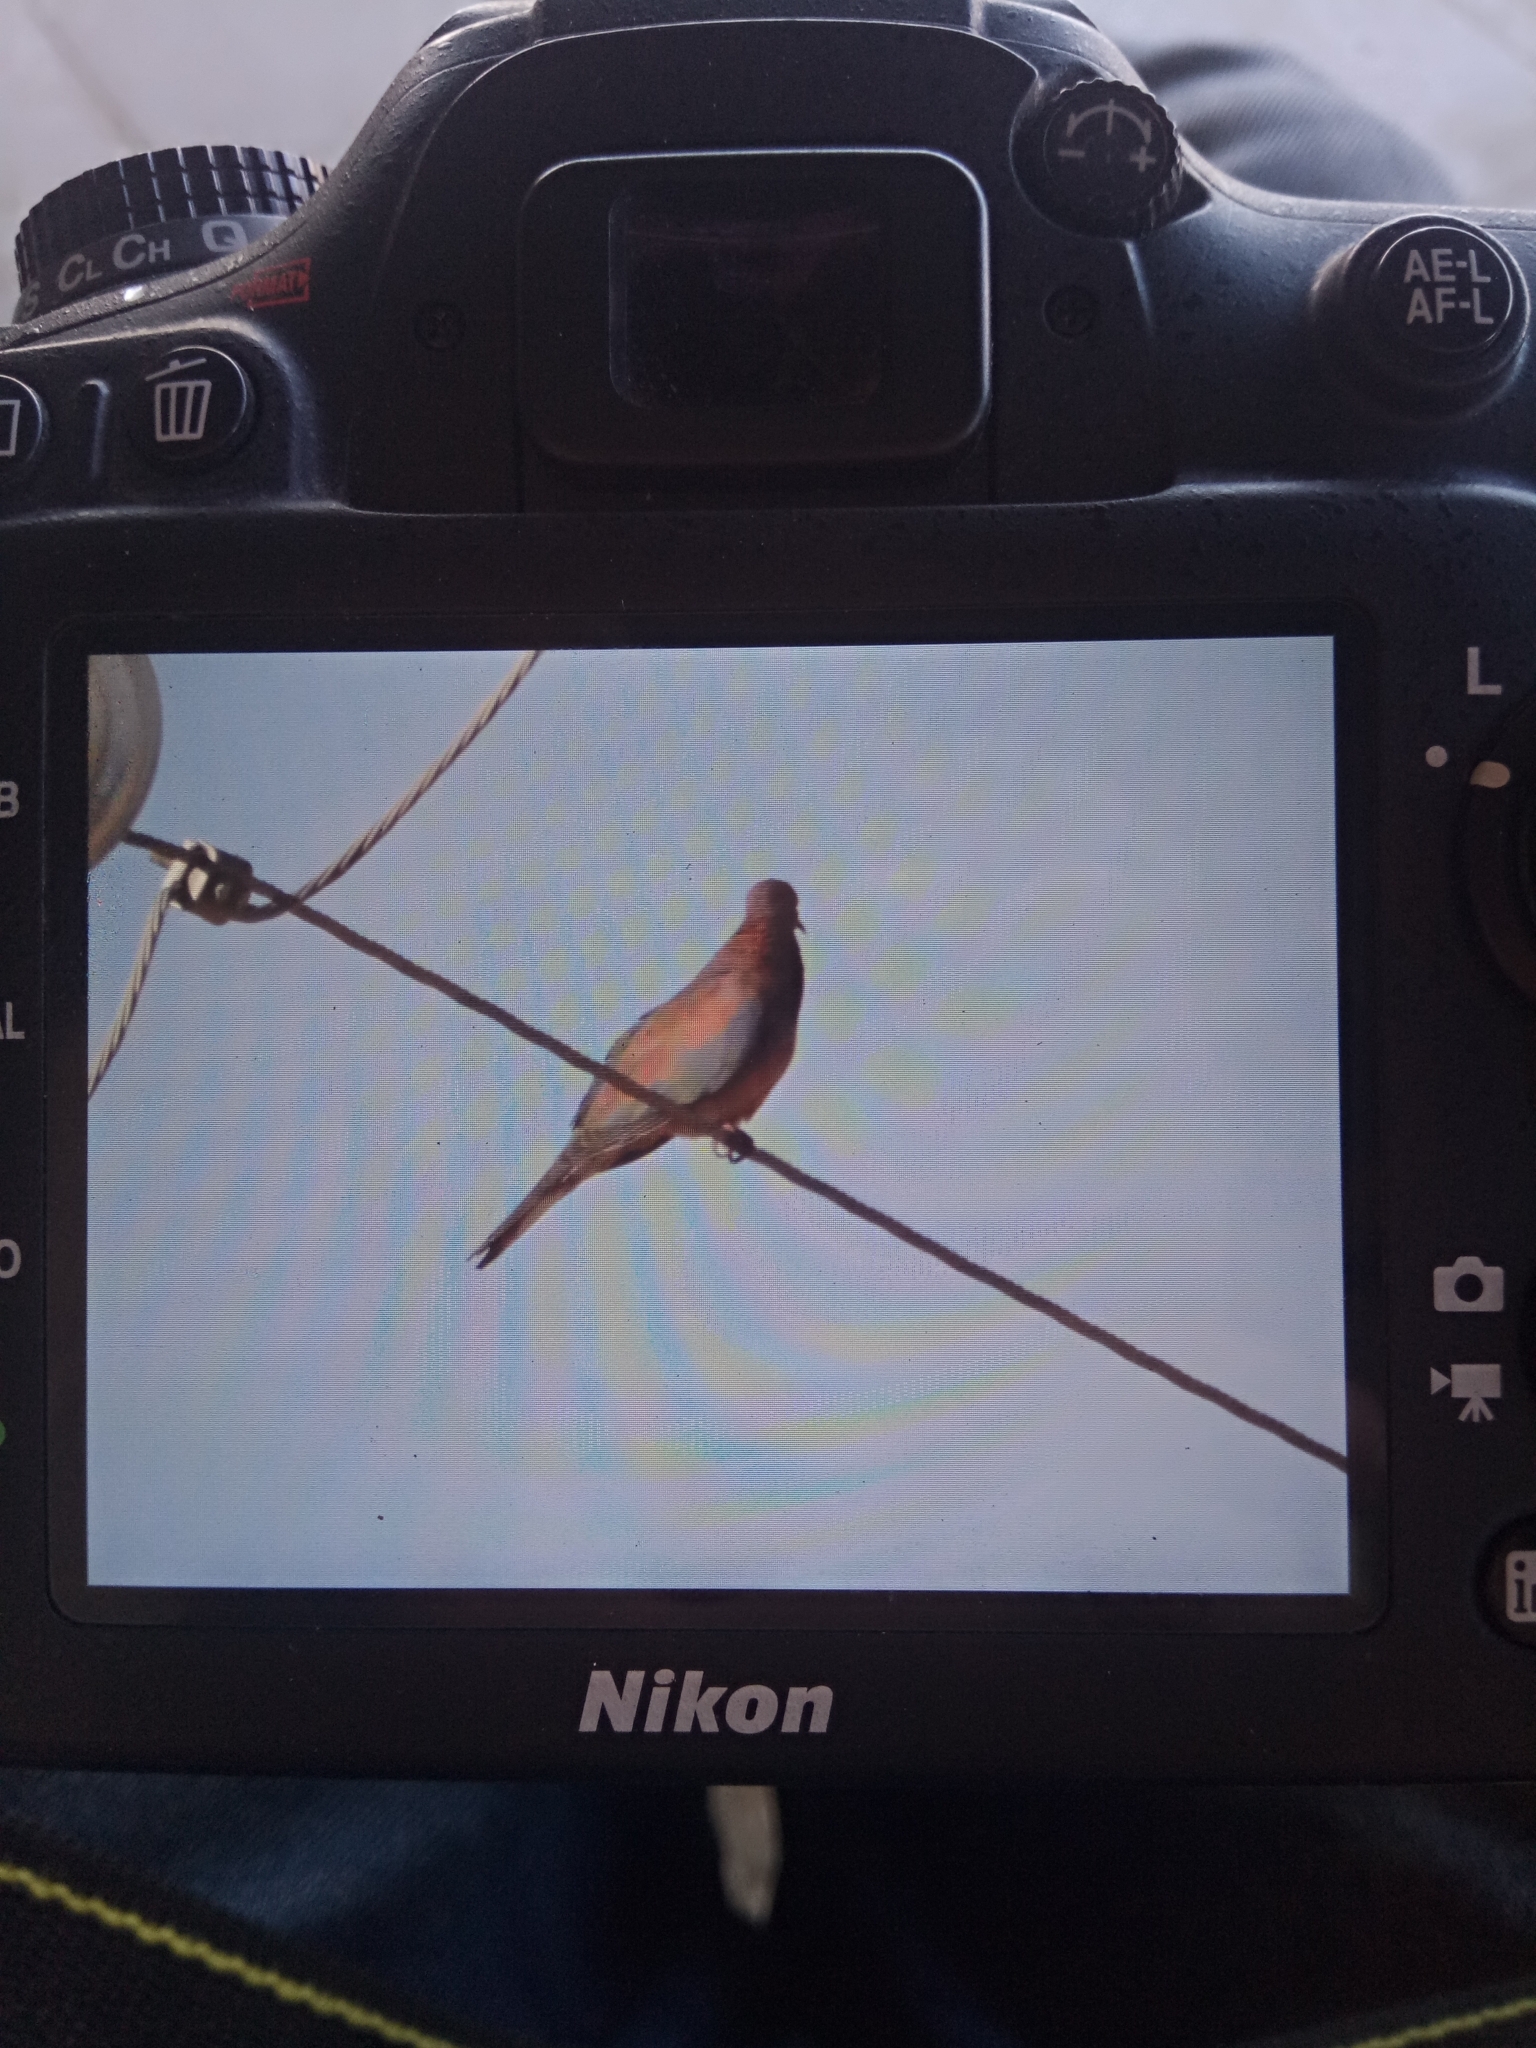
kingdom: Animalia
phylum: Chordata
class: Aves
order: Columbiformes
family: Columbidae
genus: Spilopelia
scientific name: Spilopelia senegalensis
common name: Laughing dove
